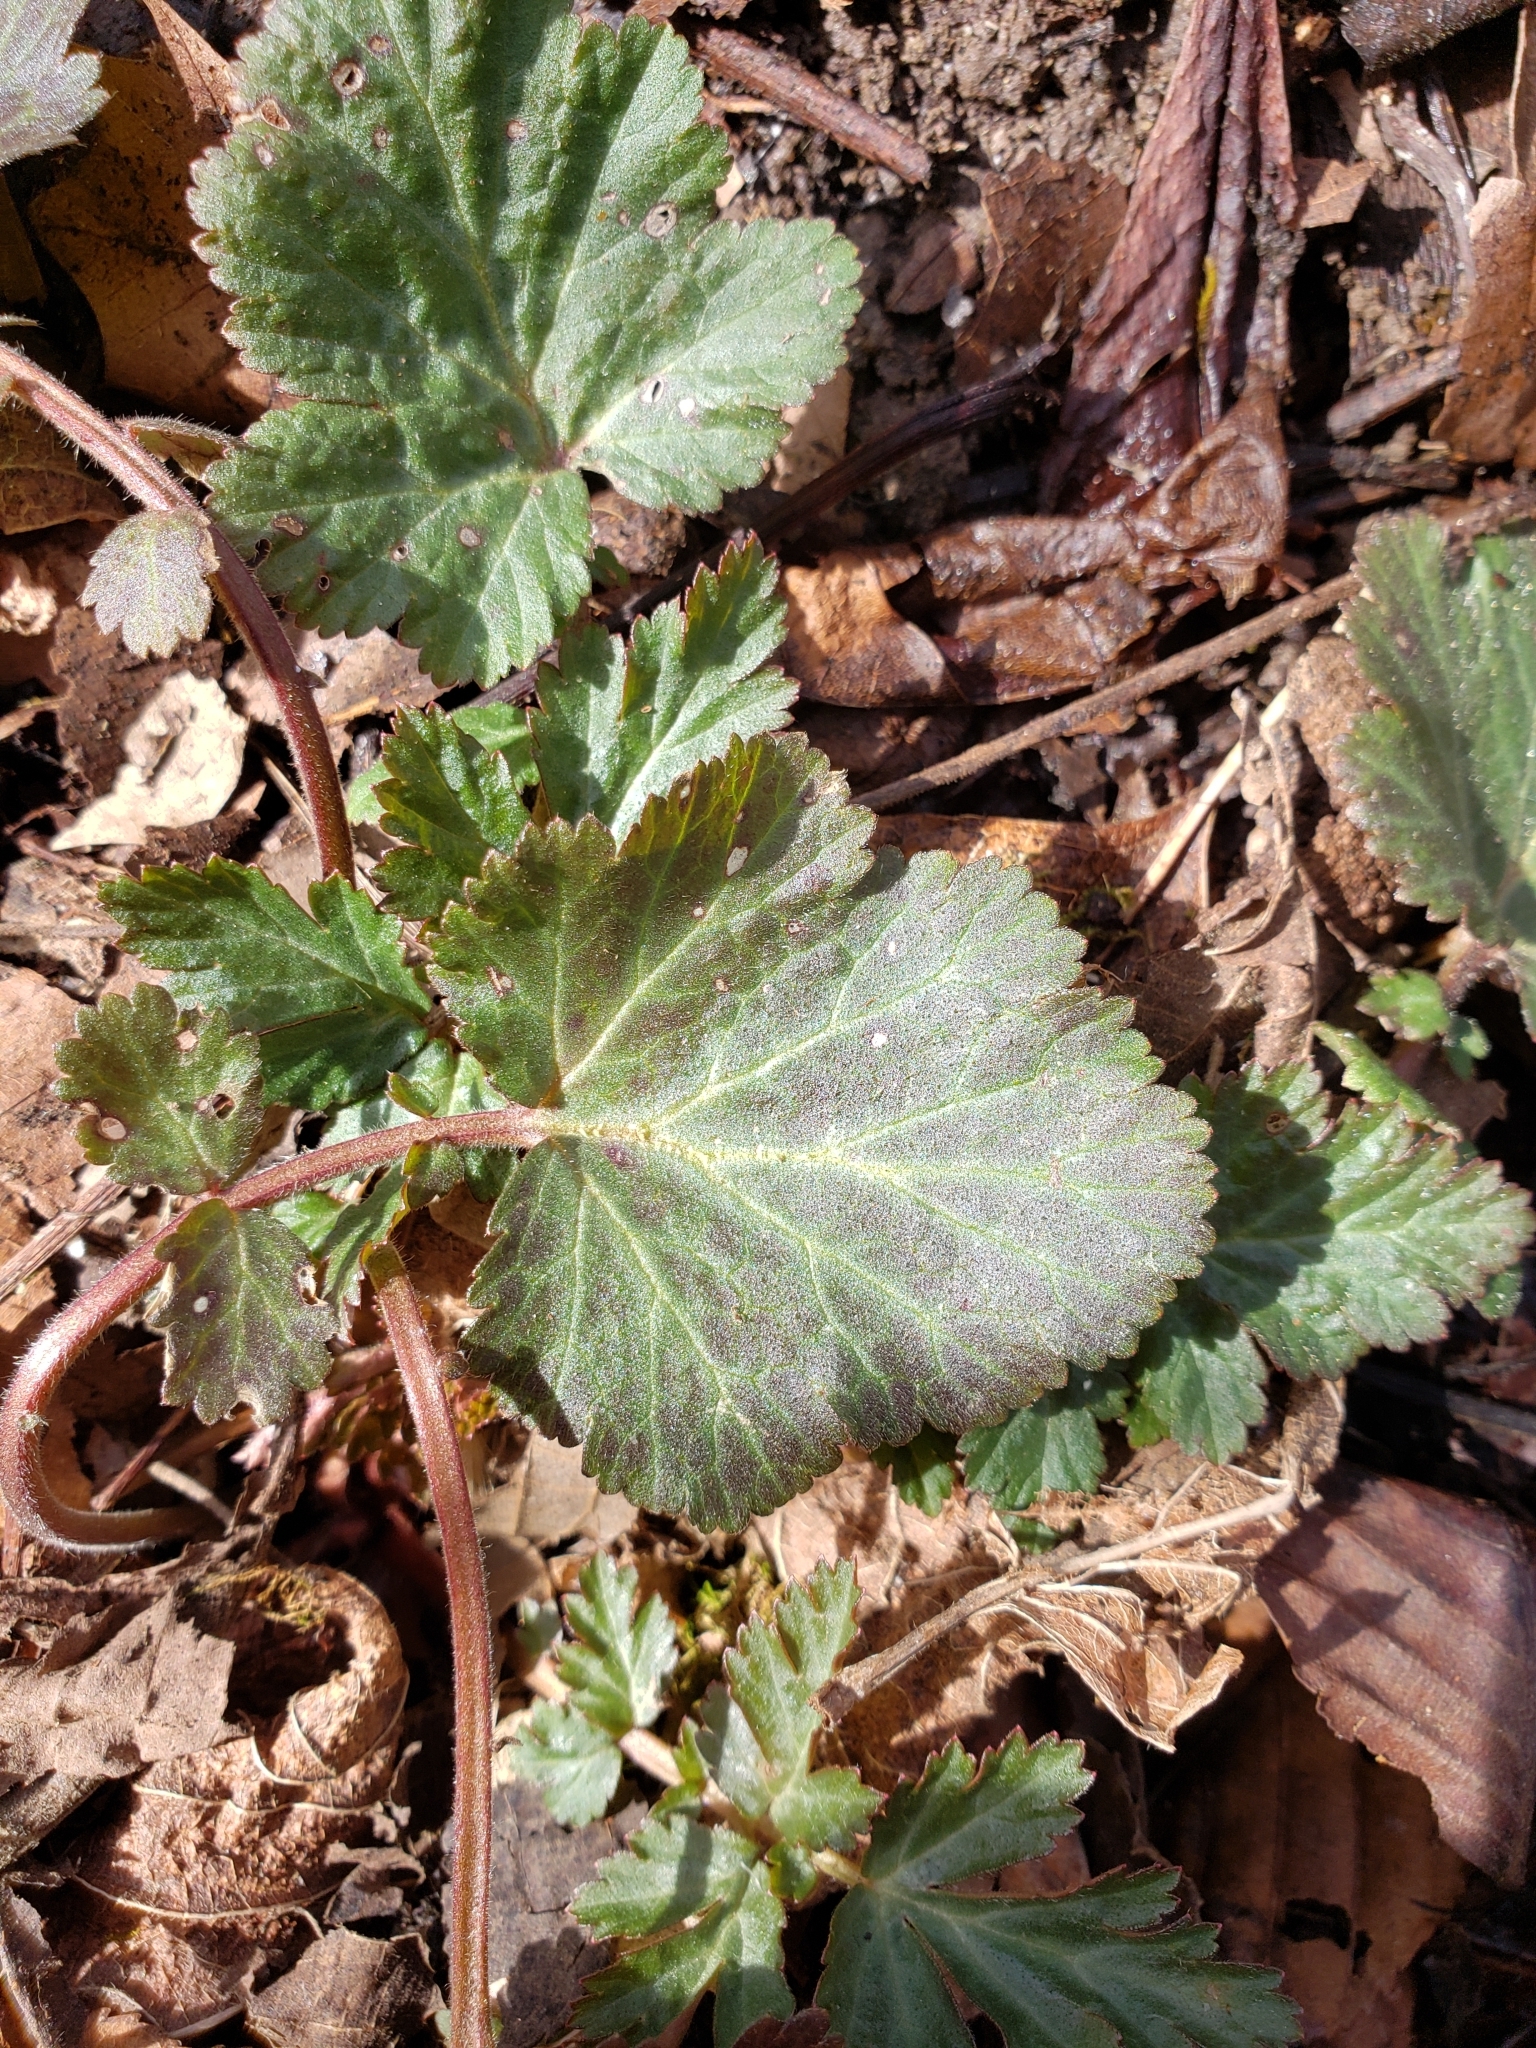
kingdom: Plantae
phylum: Tracheophyta
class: Magnoliopsida
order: Rosales
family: Rosaceae
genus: Geum
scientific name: Geum canadense
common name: White avens
